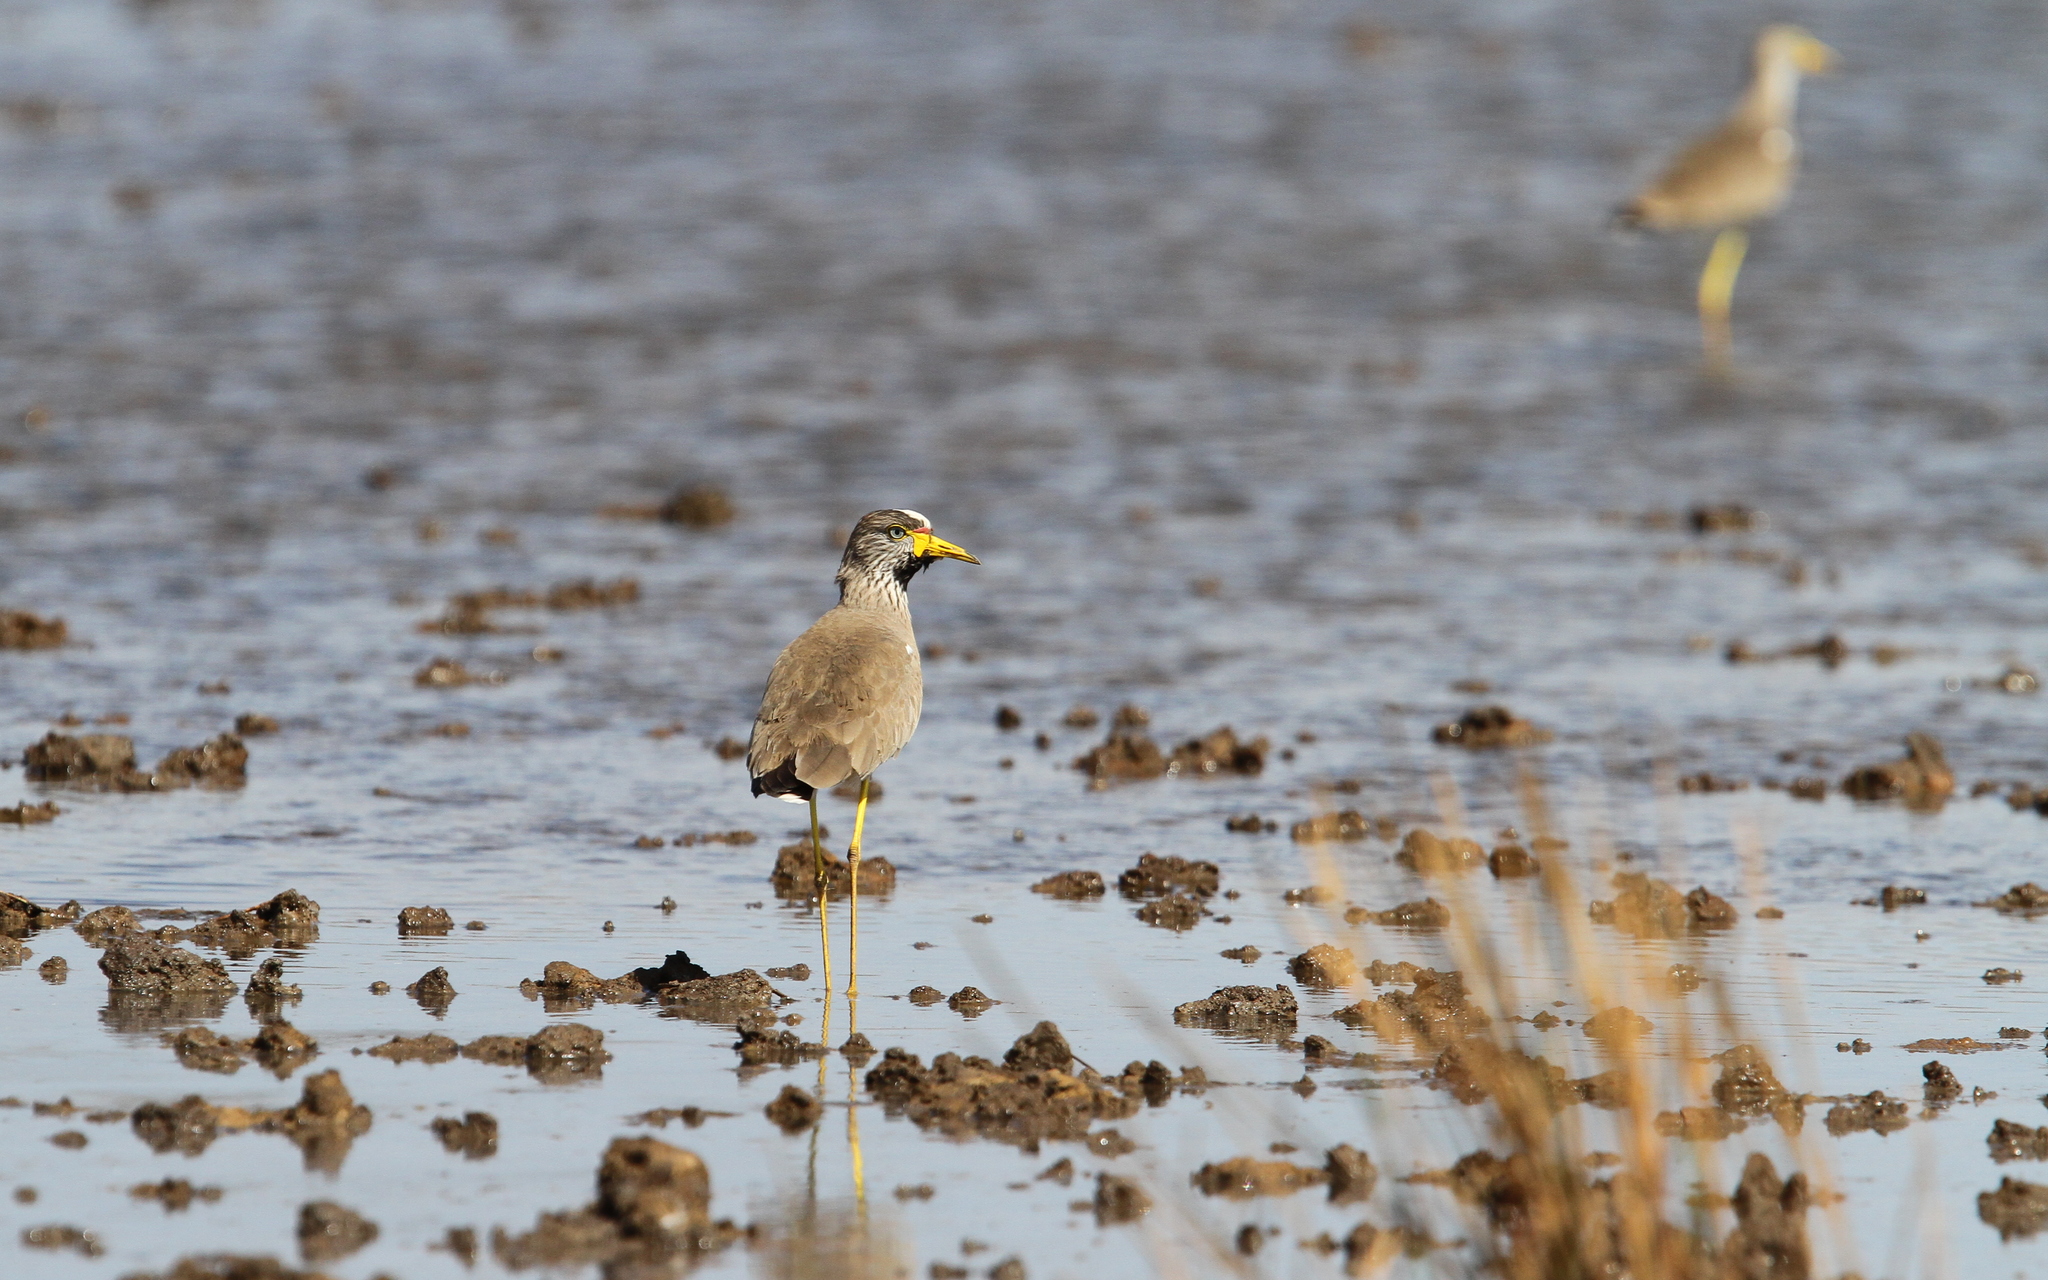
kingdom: Animalia
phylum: Chordata
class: Aves
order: Charadriiformes
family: Charadriidae
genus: Vanellus
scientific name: Vanellus senegallus
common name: African wattled lapwing
